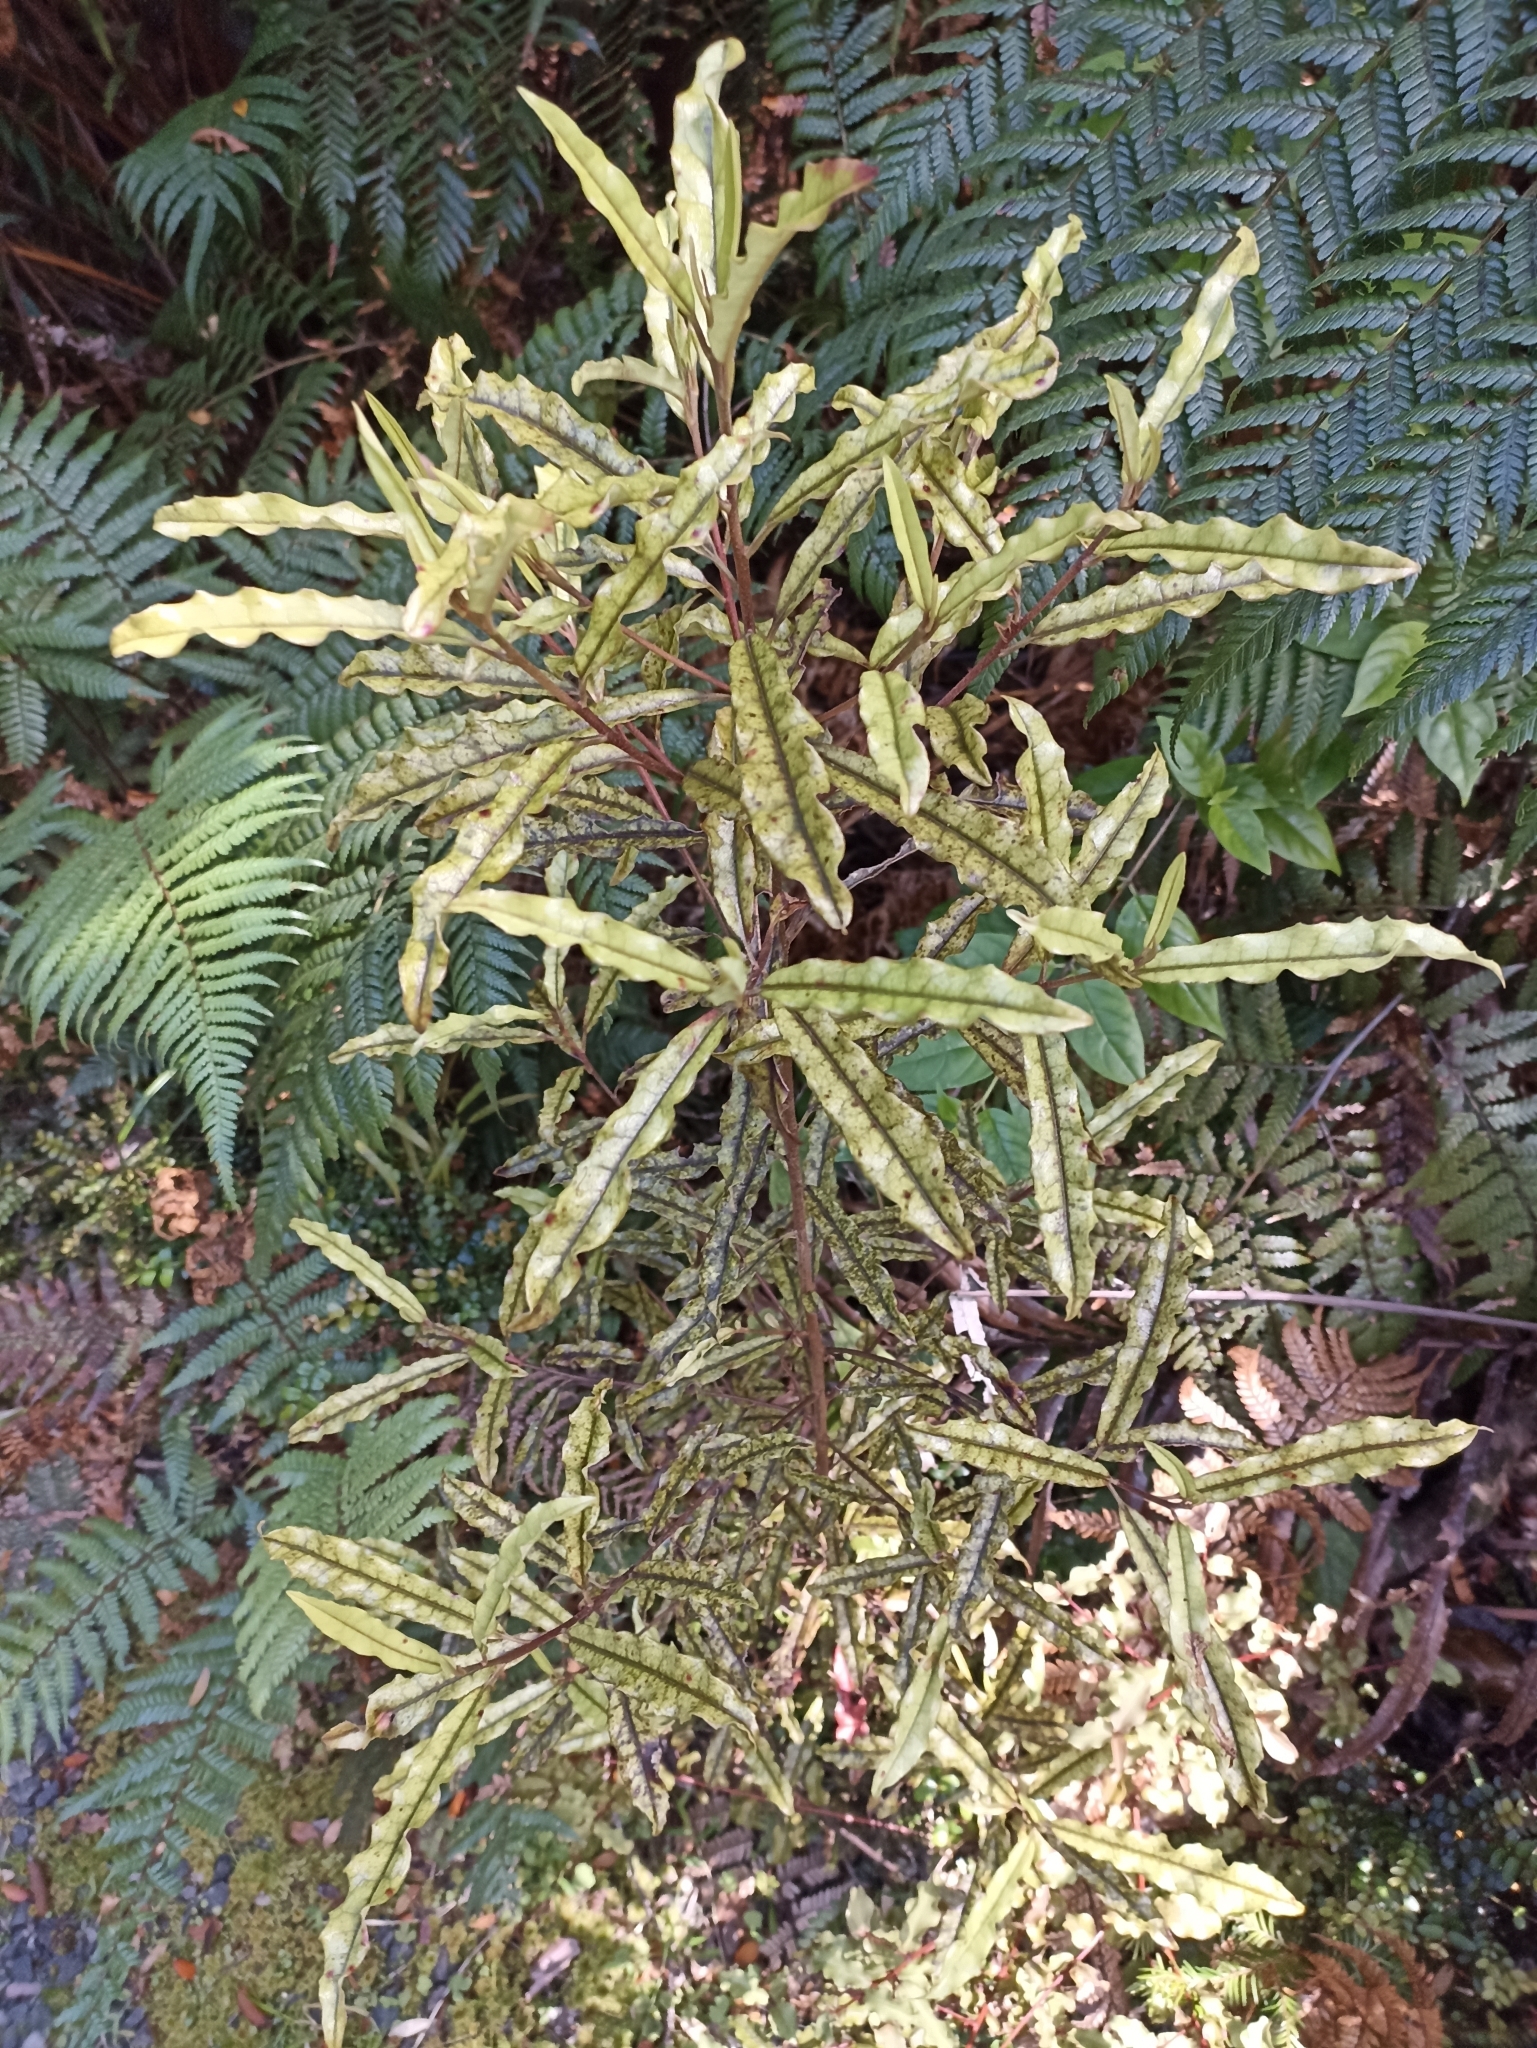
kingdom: Plantae
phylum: Tracheophyta
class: Magnoliopsida
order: Paracryphiales
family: Paracryphiaceae
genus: Quintinia
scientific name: Quintinia serrata
